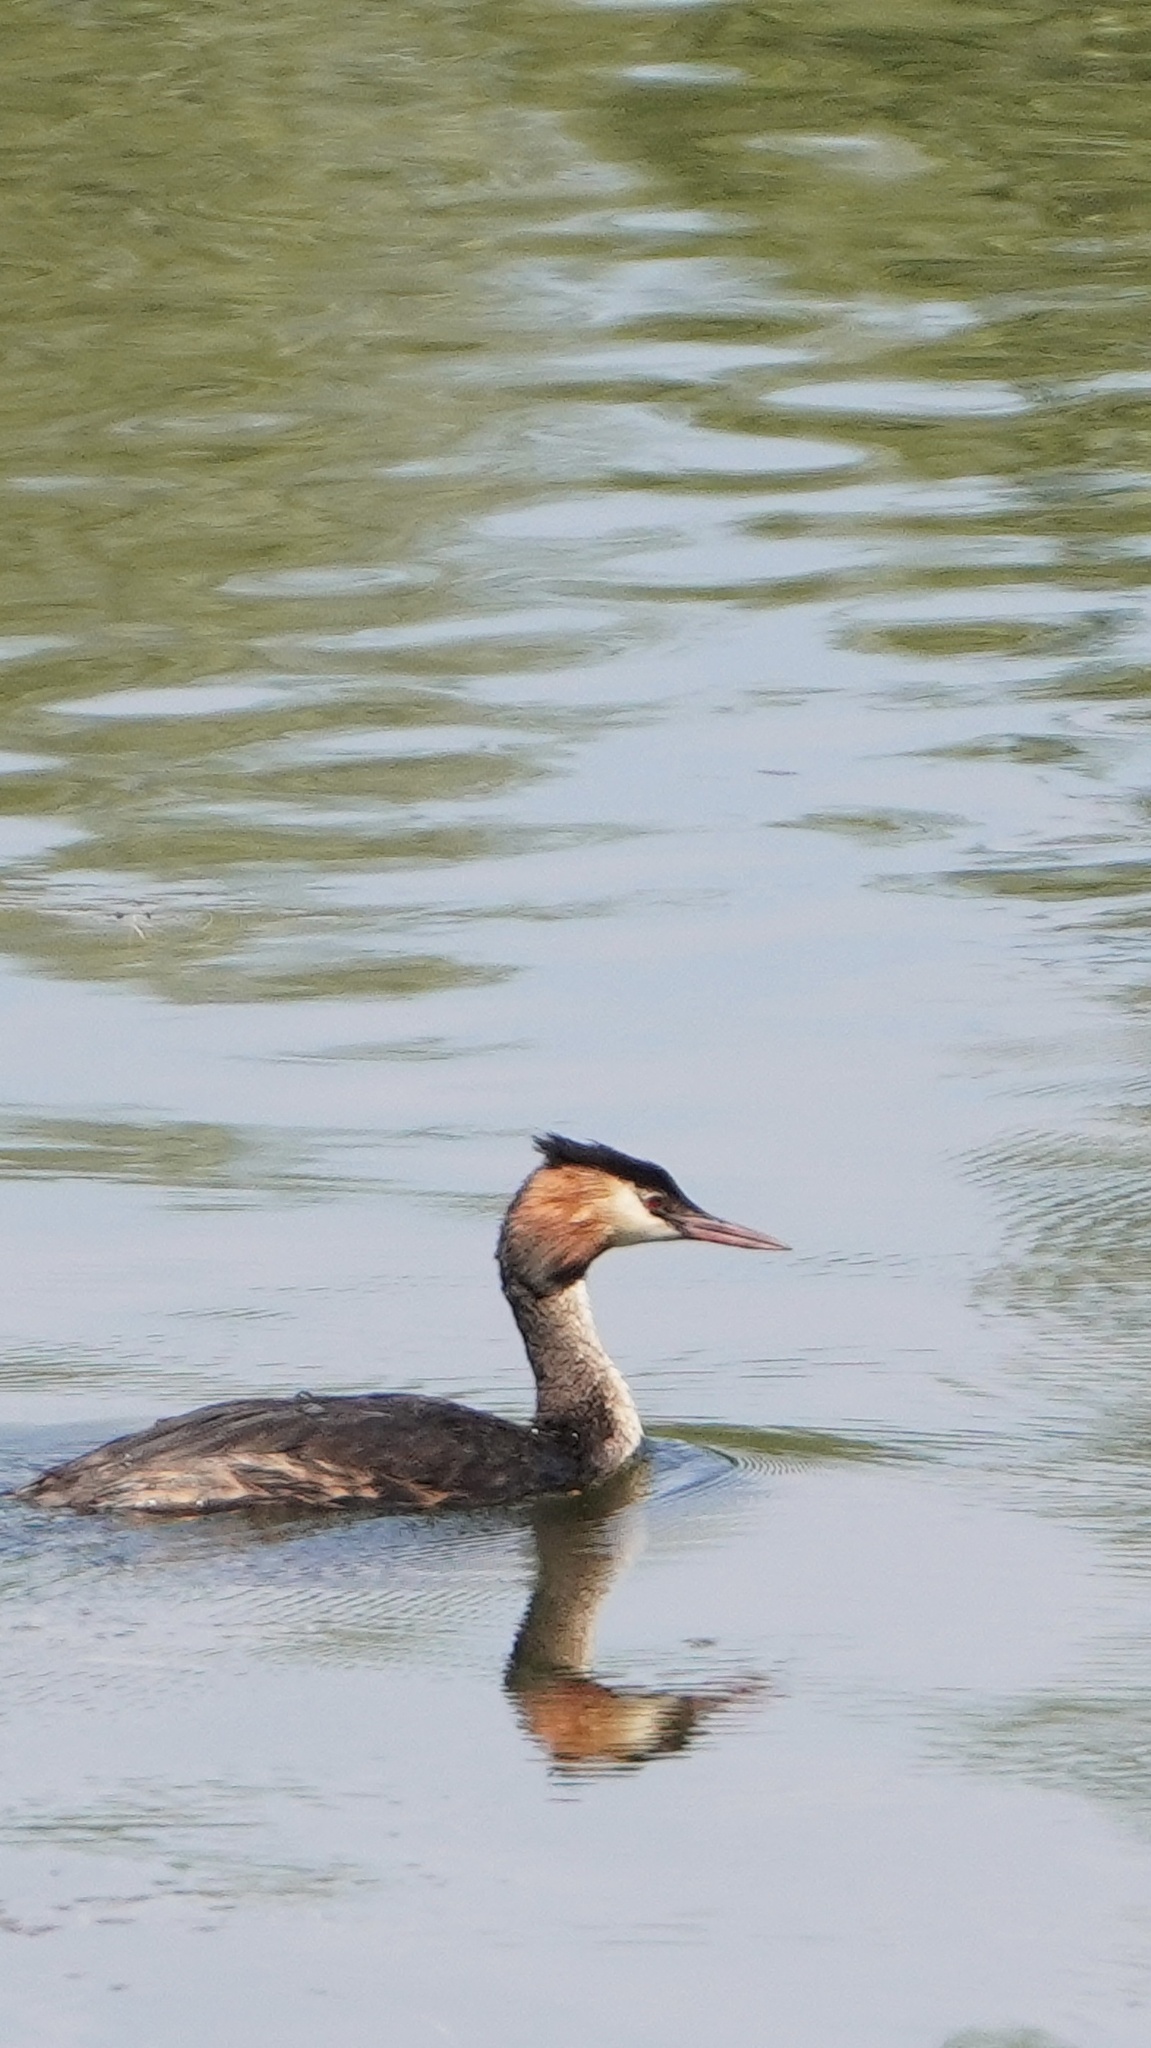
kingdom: Animalia
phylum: Chordata
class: Aves
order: Podicipediformes
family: Podicipedidae
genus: Podiceps
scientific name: Podiceps cristatus
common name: Great crested grebe
